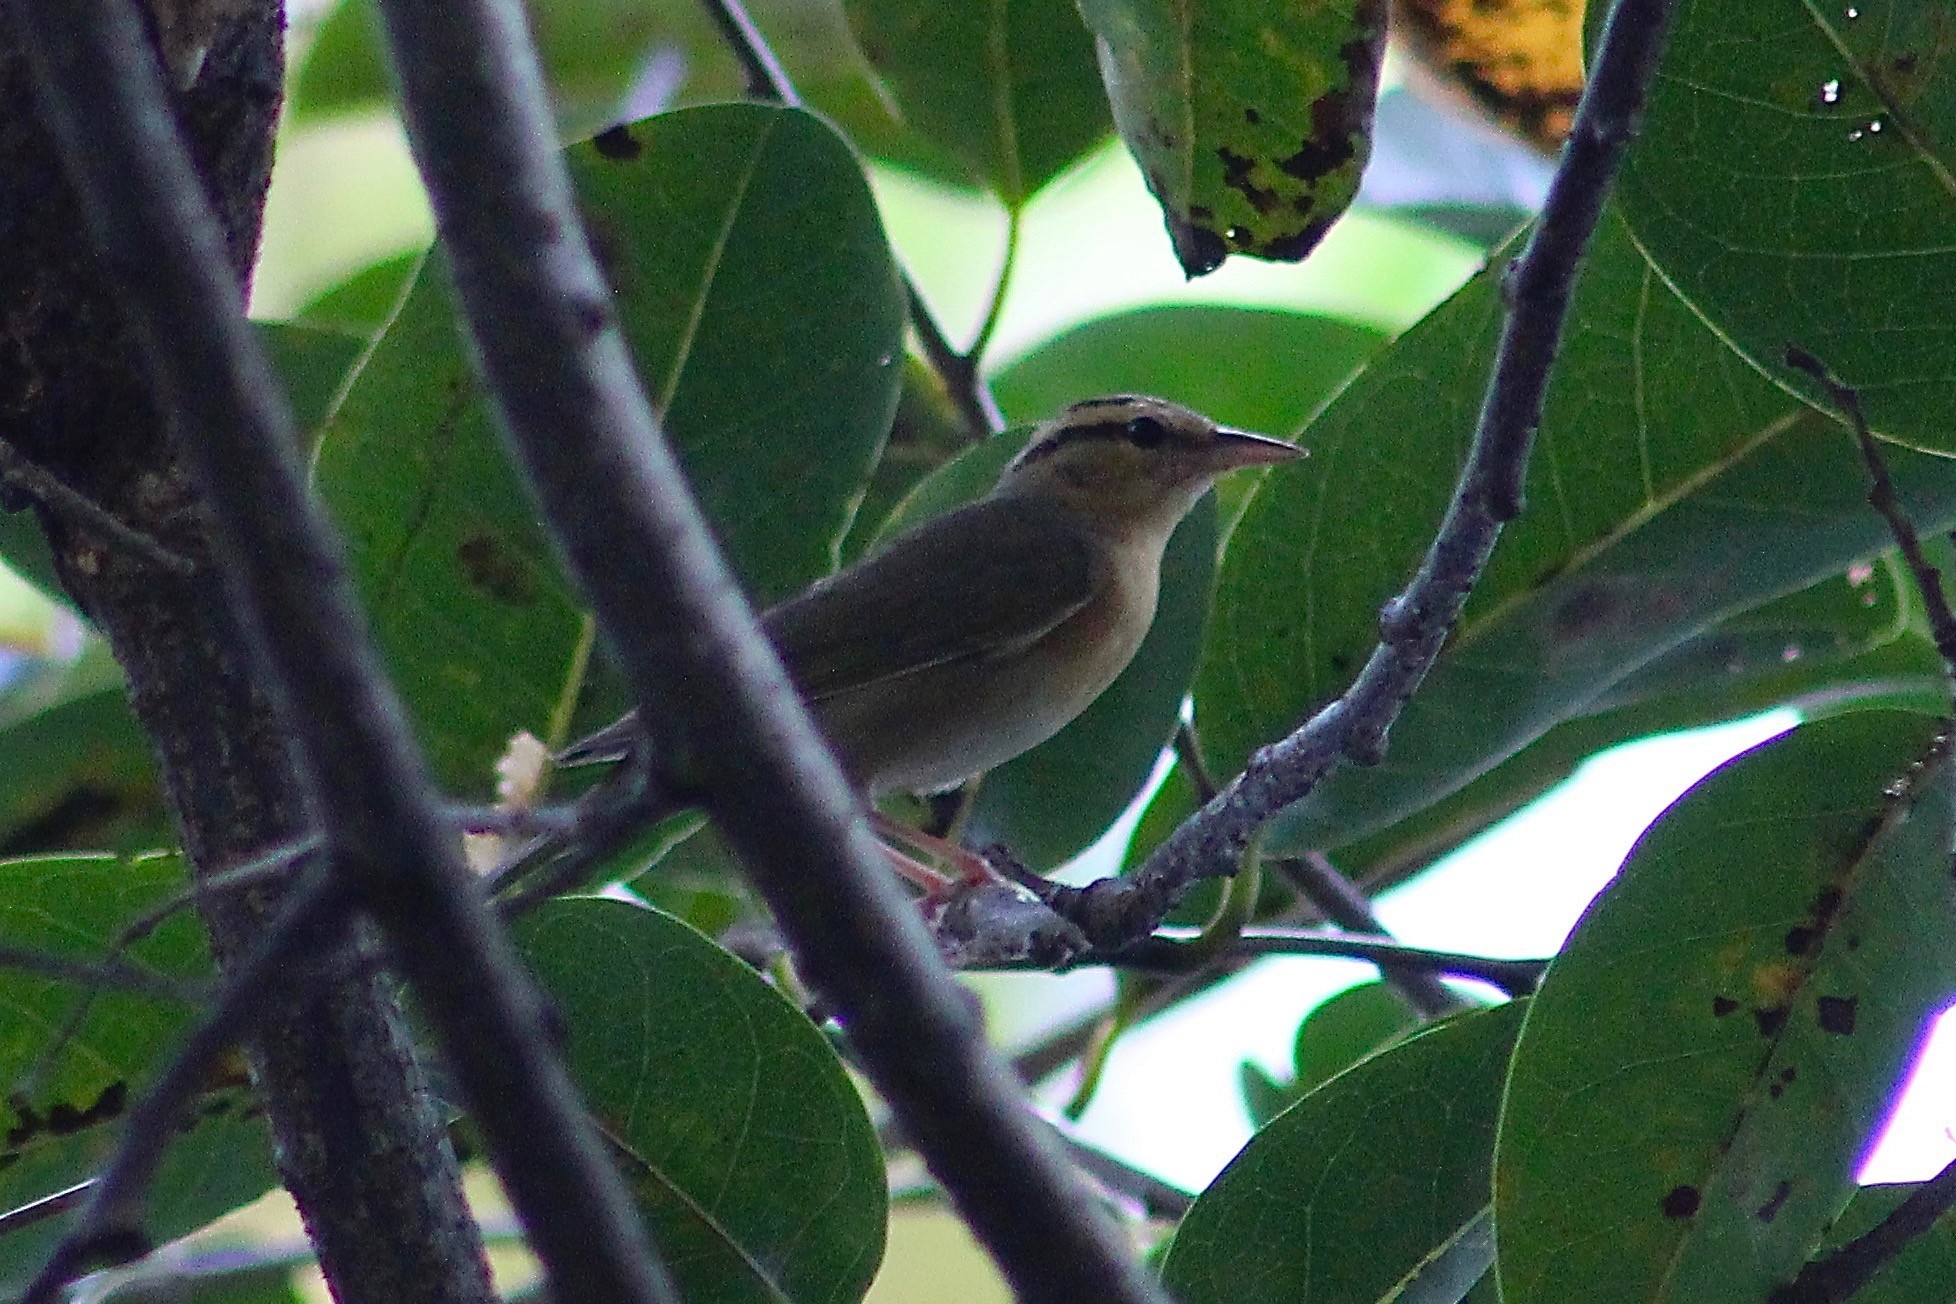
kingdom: Animalia
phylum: Chordata
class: Aves
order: Passeriformes
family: Parulidae
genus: Helmitheros
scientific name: Helmitheros vermivorum
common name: Worm-eating warbler
